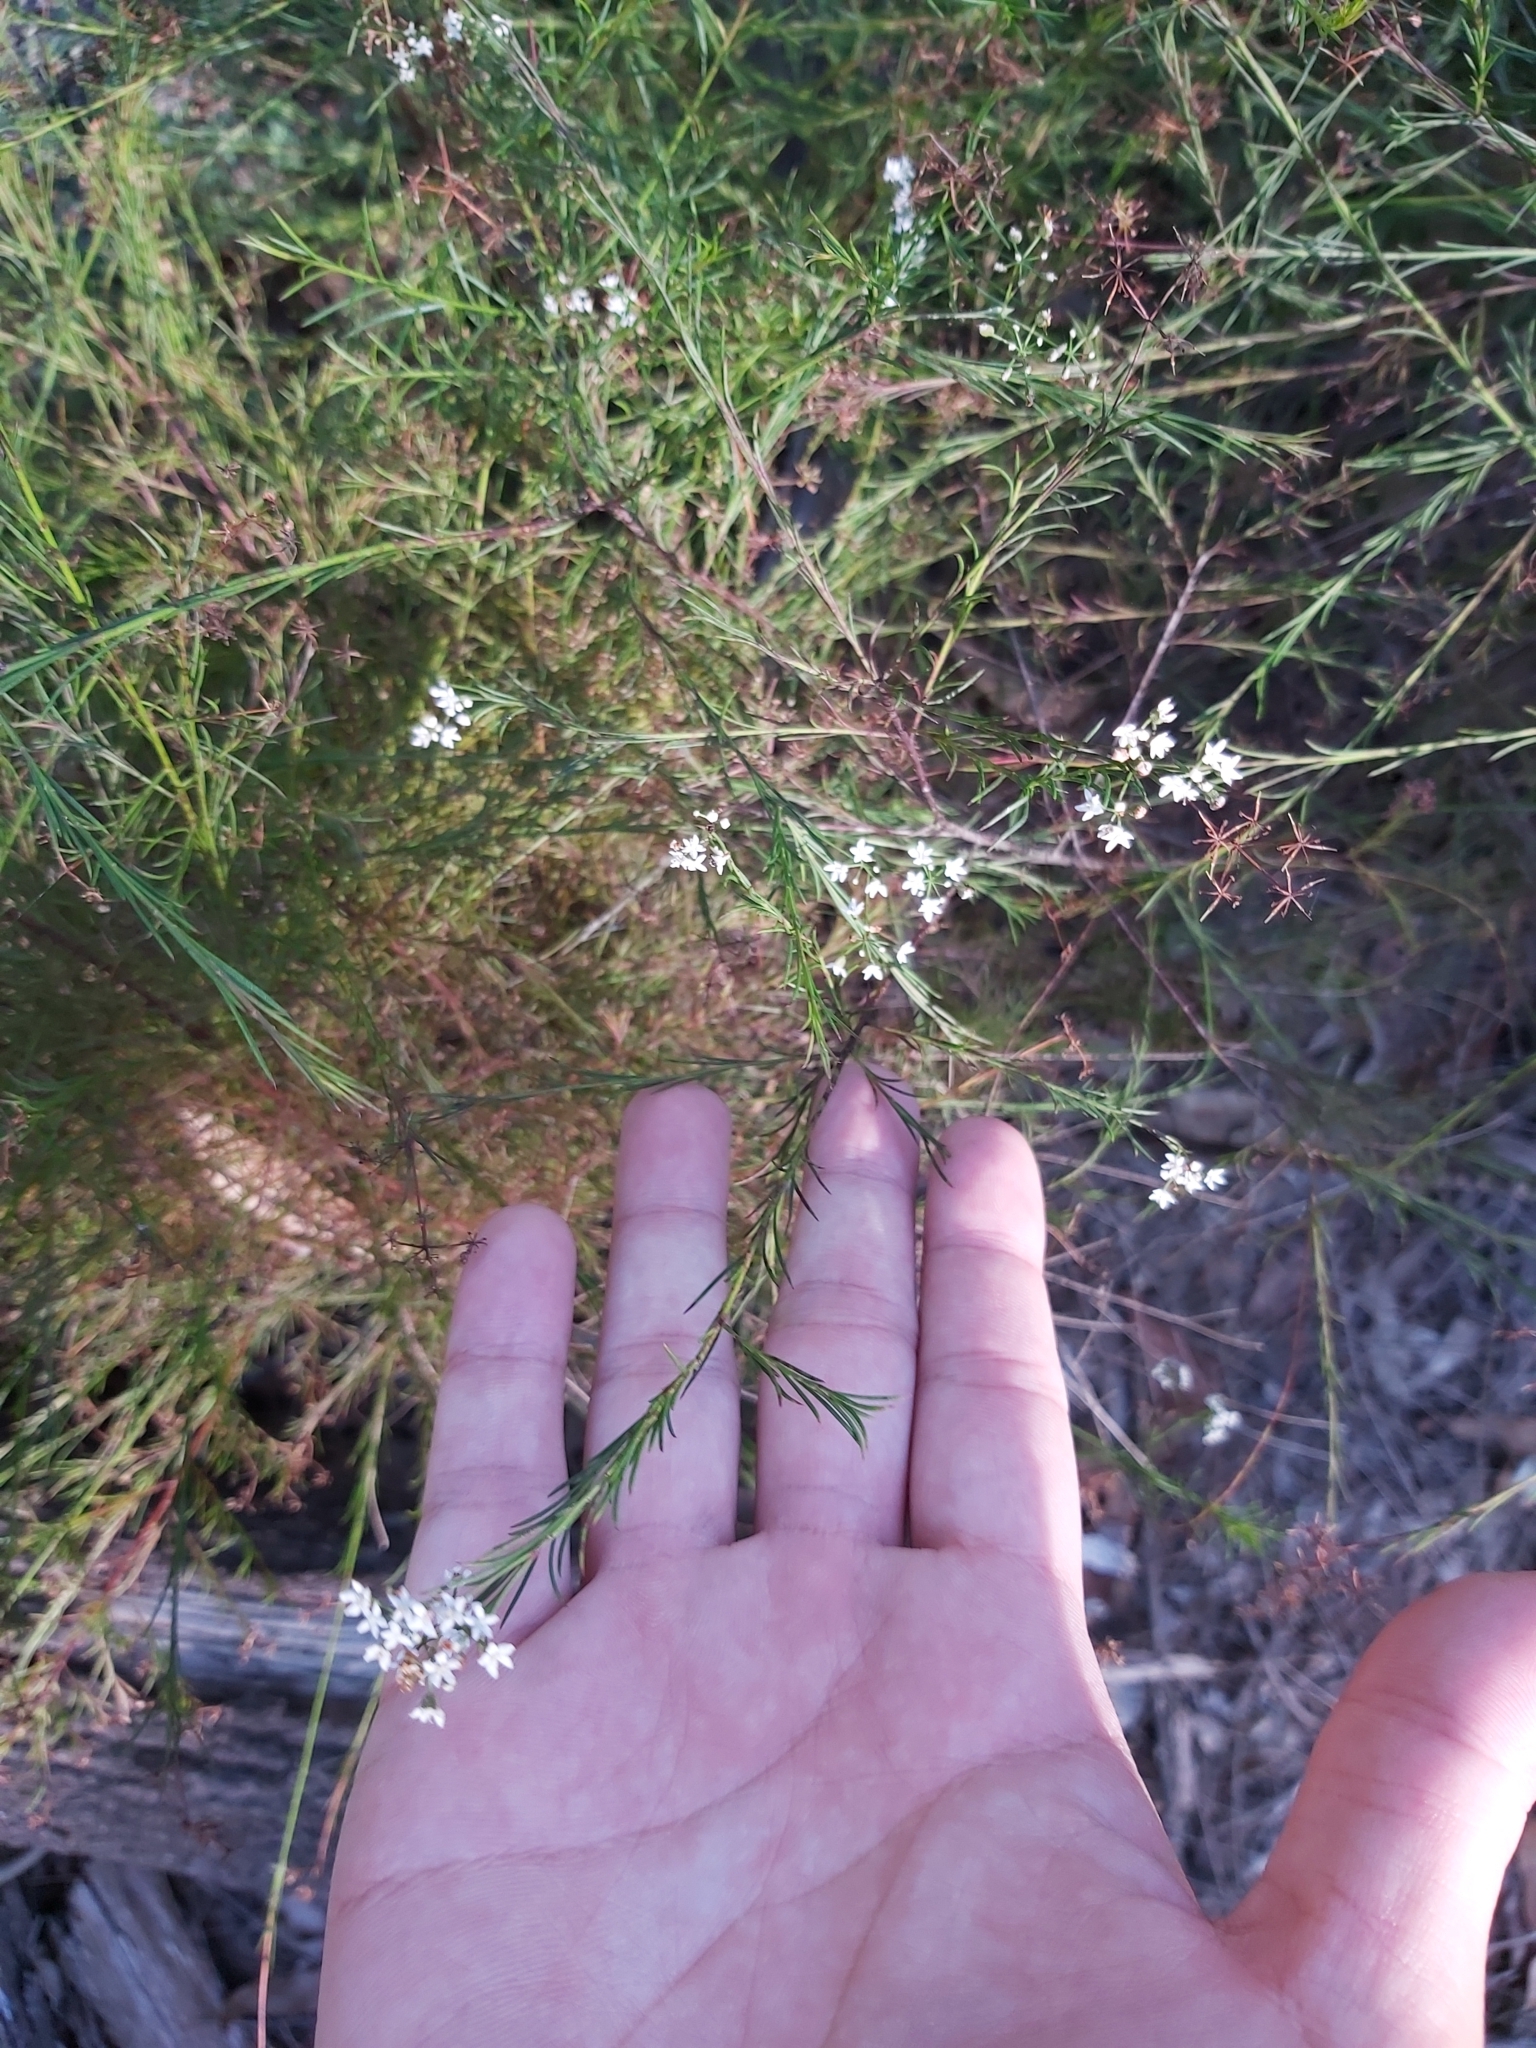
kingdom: Plantae
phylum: Tracheophyta
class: Magnoliopsida
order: Apiales
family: Apiaceae
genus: Platysace
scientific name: Platysace linearifolia
